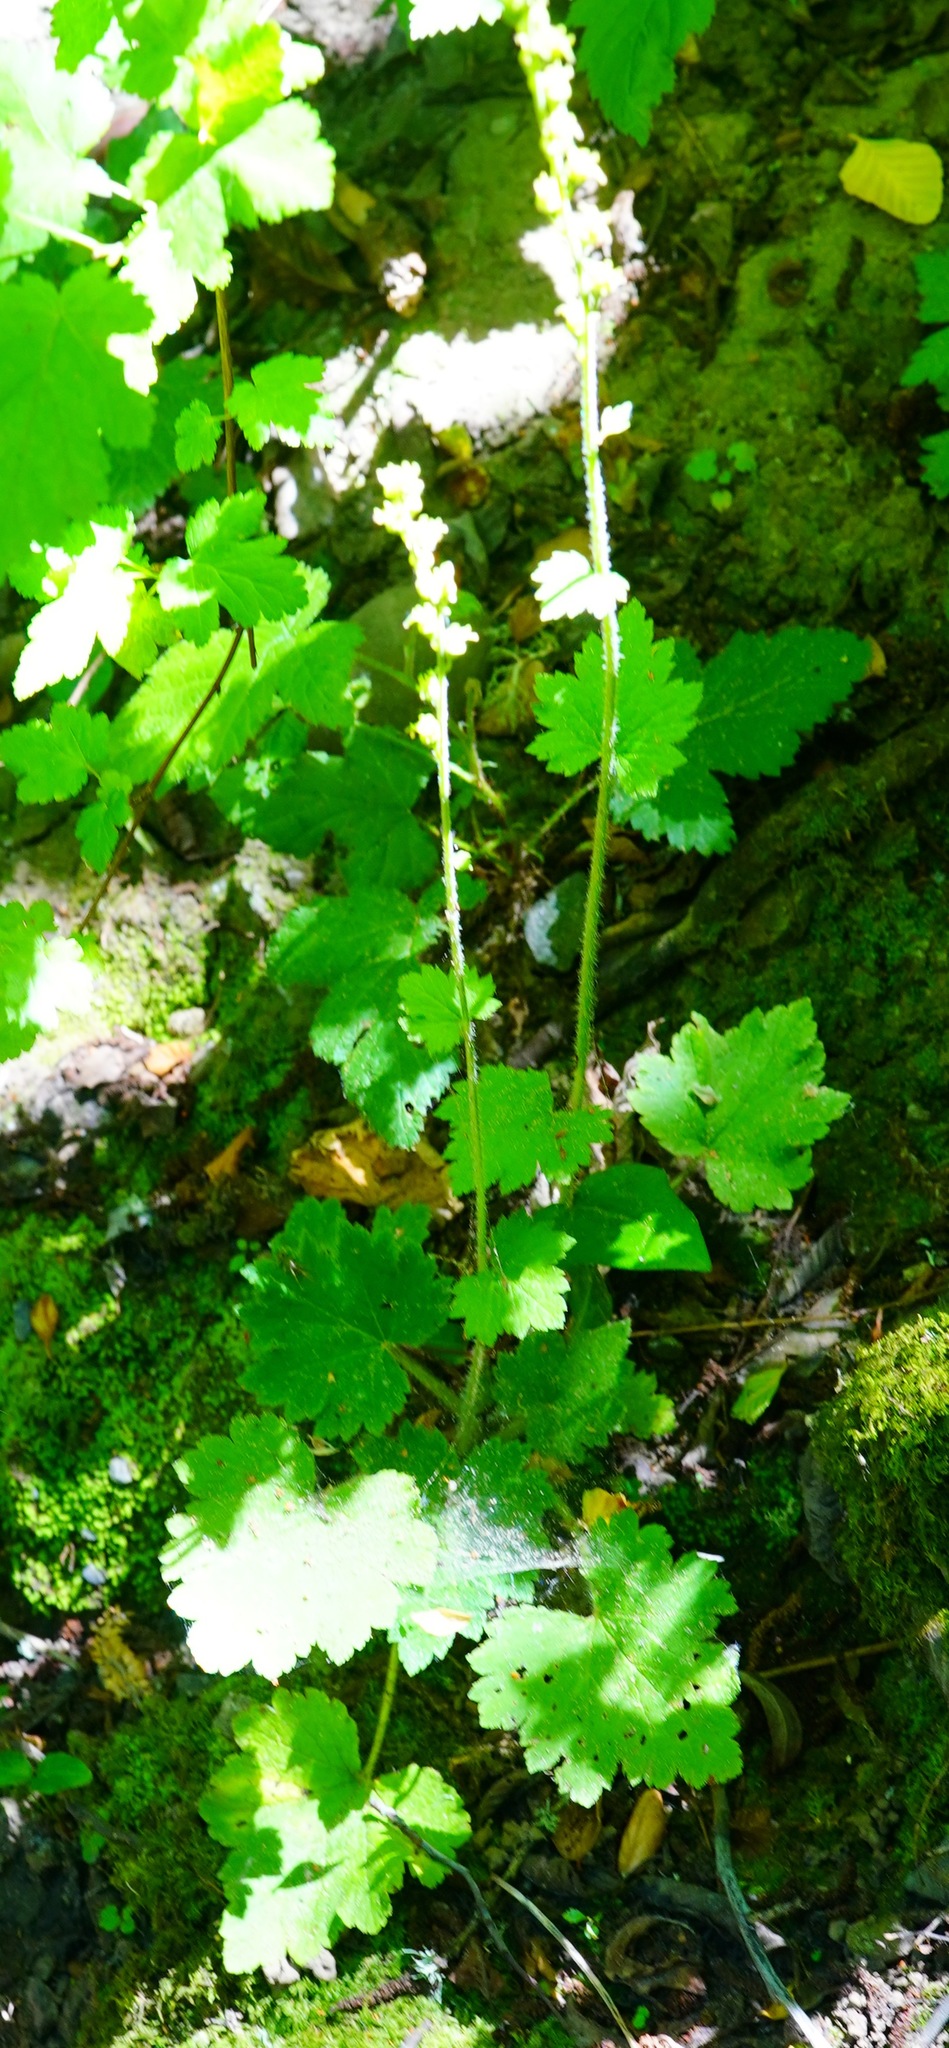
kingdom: Plantae
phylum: Tracheophyta
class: Magnoliopsida
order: Saxifragales
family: Saxifragaceae
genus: Tellima
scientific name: Tellima grandiflora
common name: Fringecups
